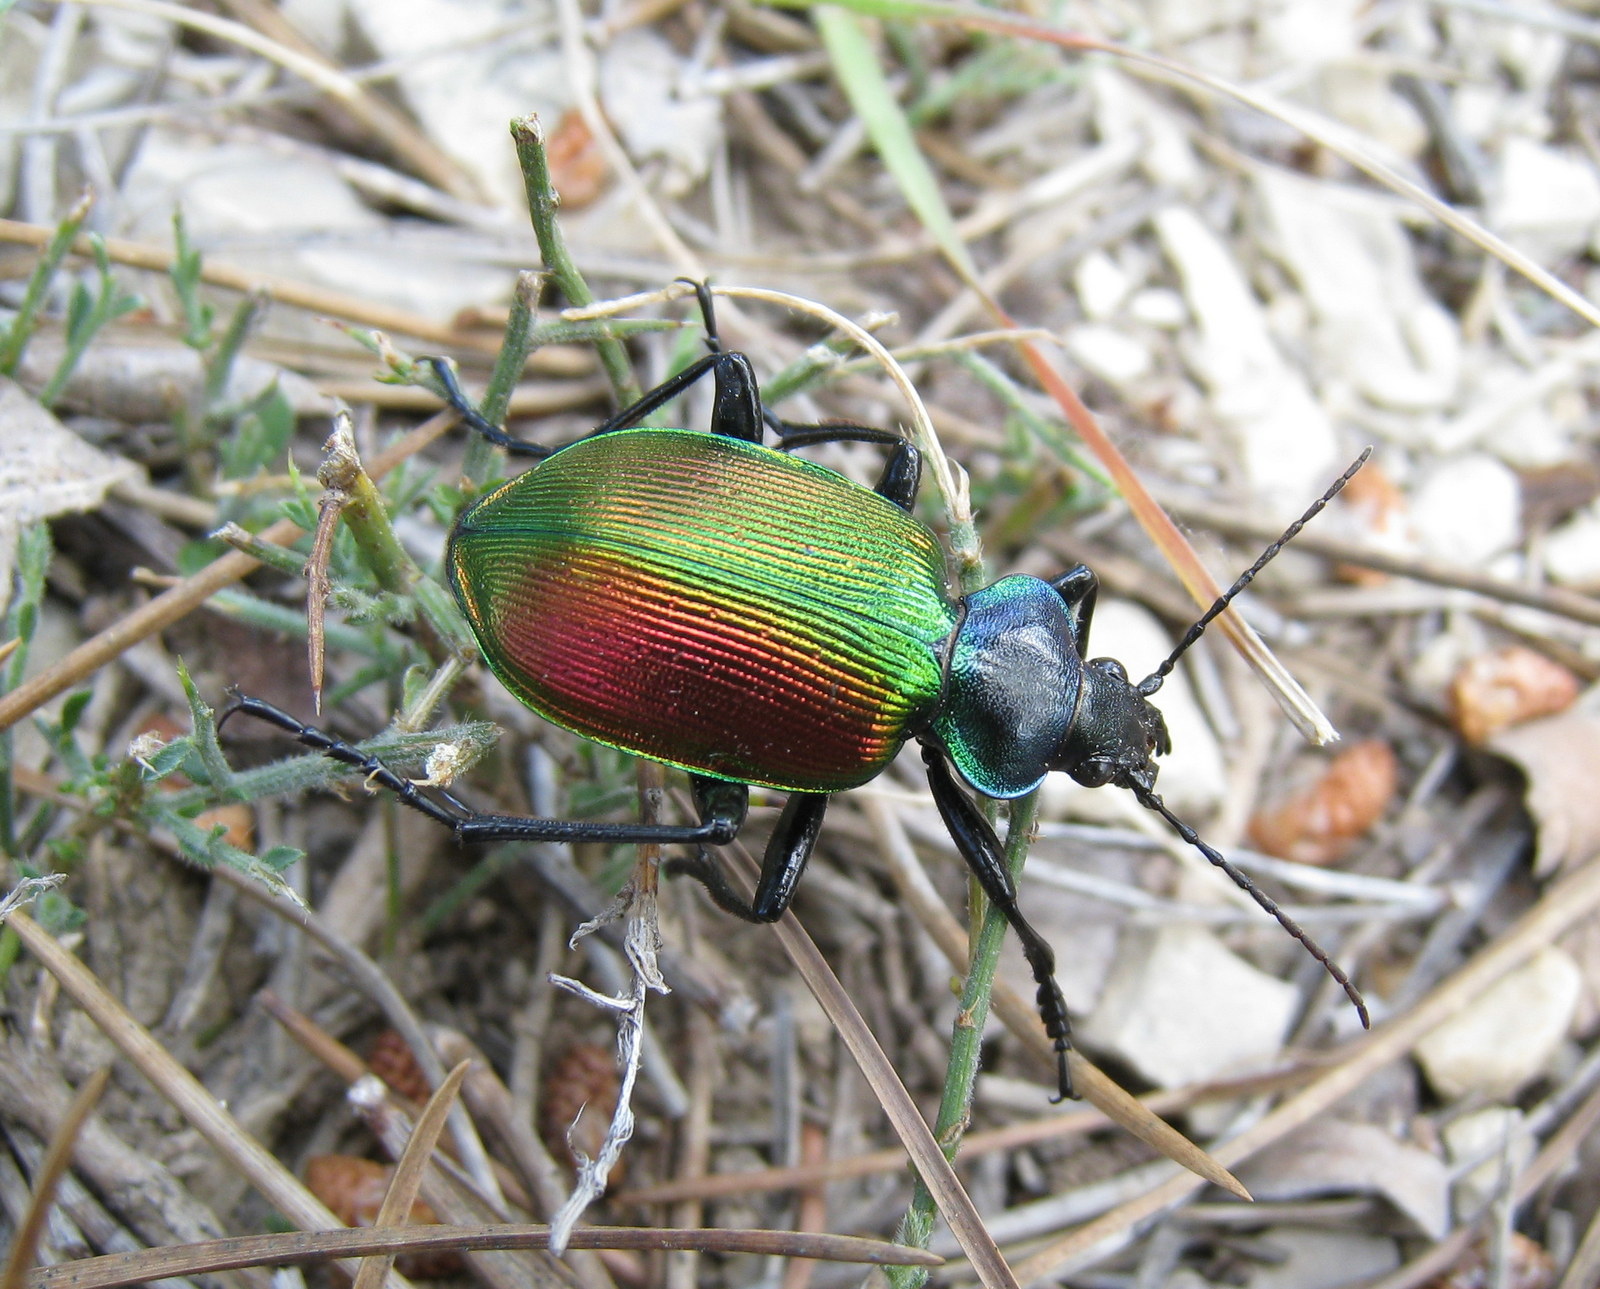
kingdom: Animalia
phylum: Arthropoda
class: Insecta
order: Coleoptera
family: Carabidae
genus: Calosoma
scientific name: Calosoma sycophanta
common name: Forest caterpillar hunter
